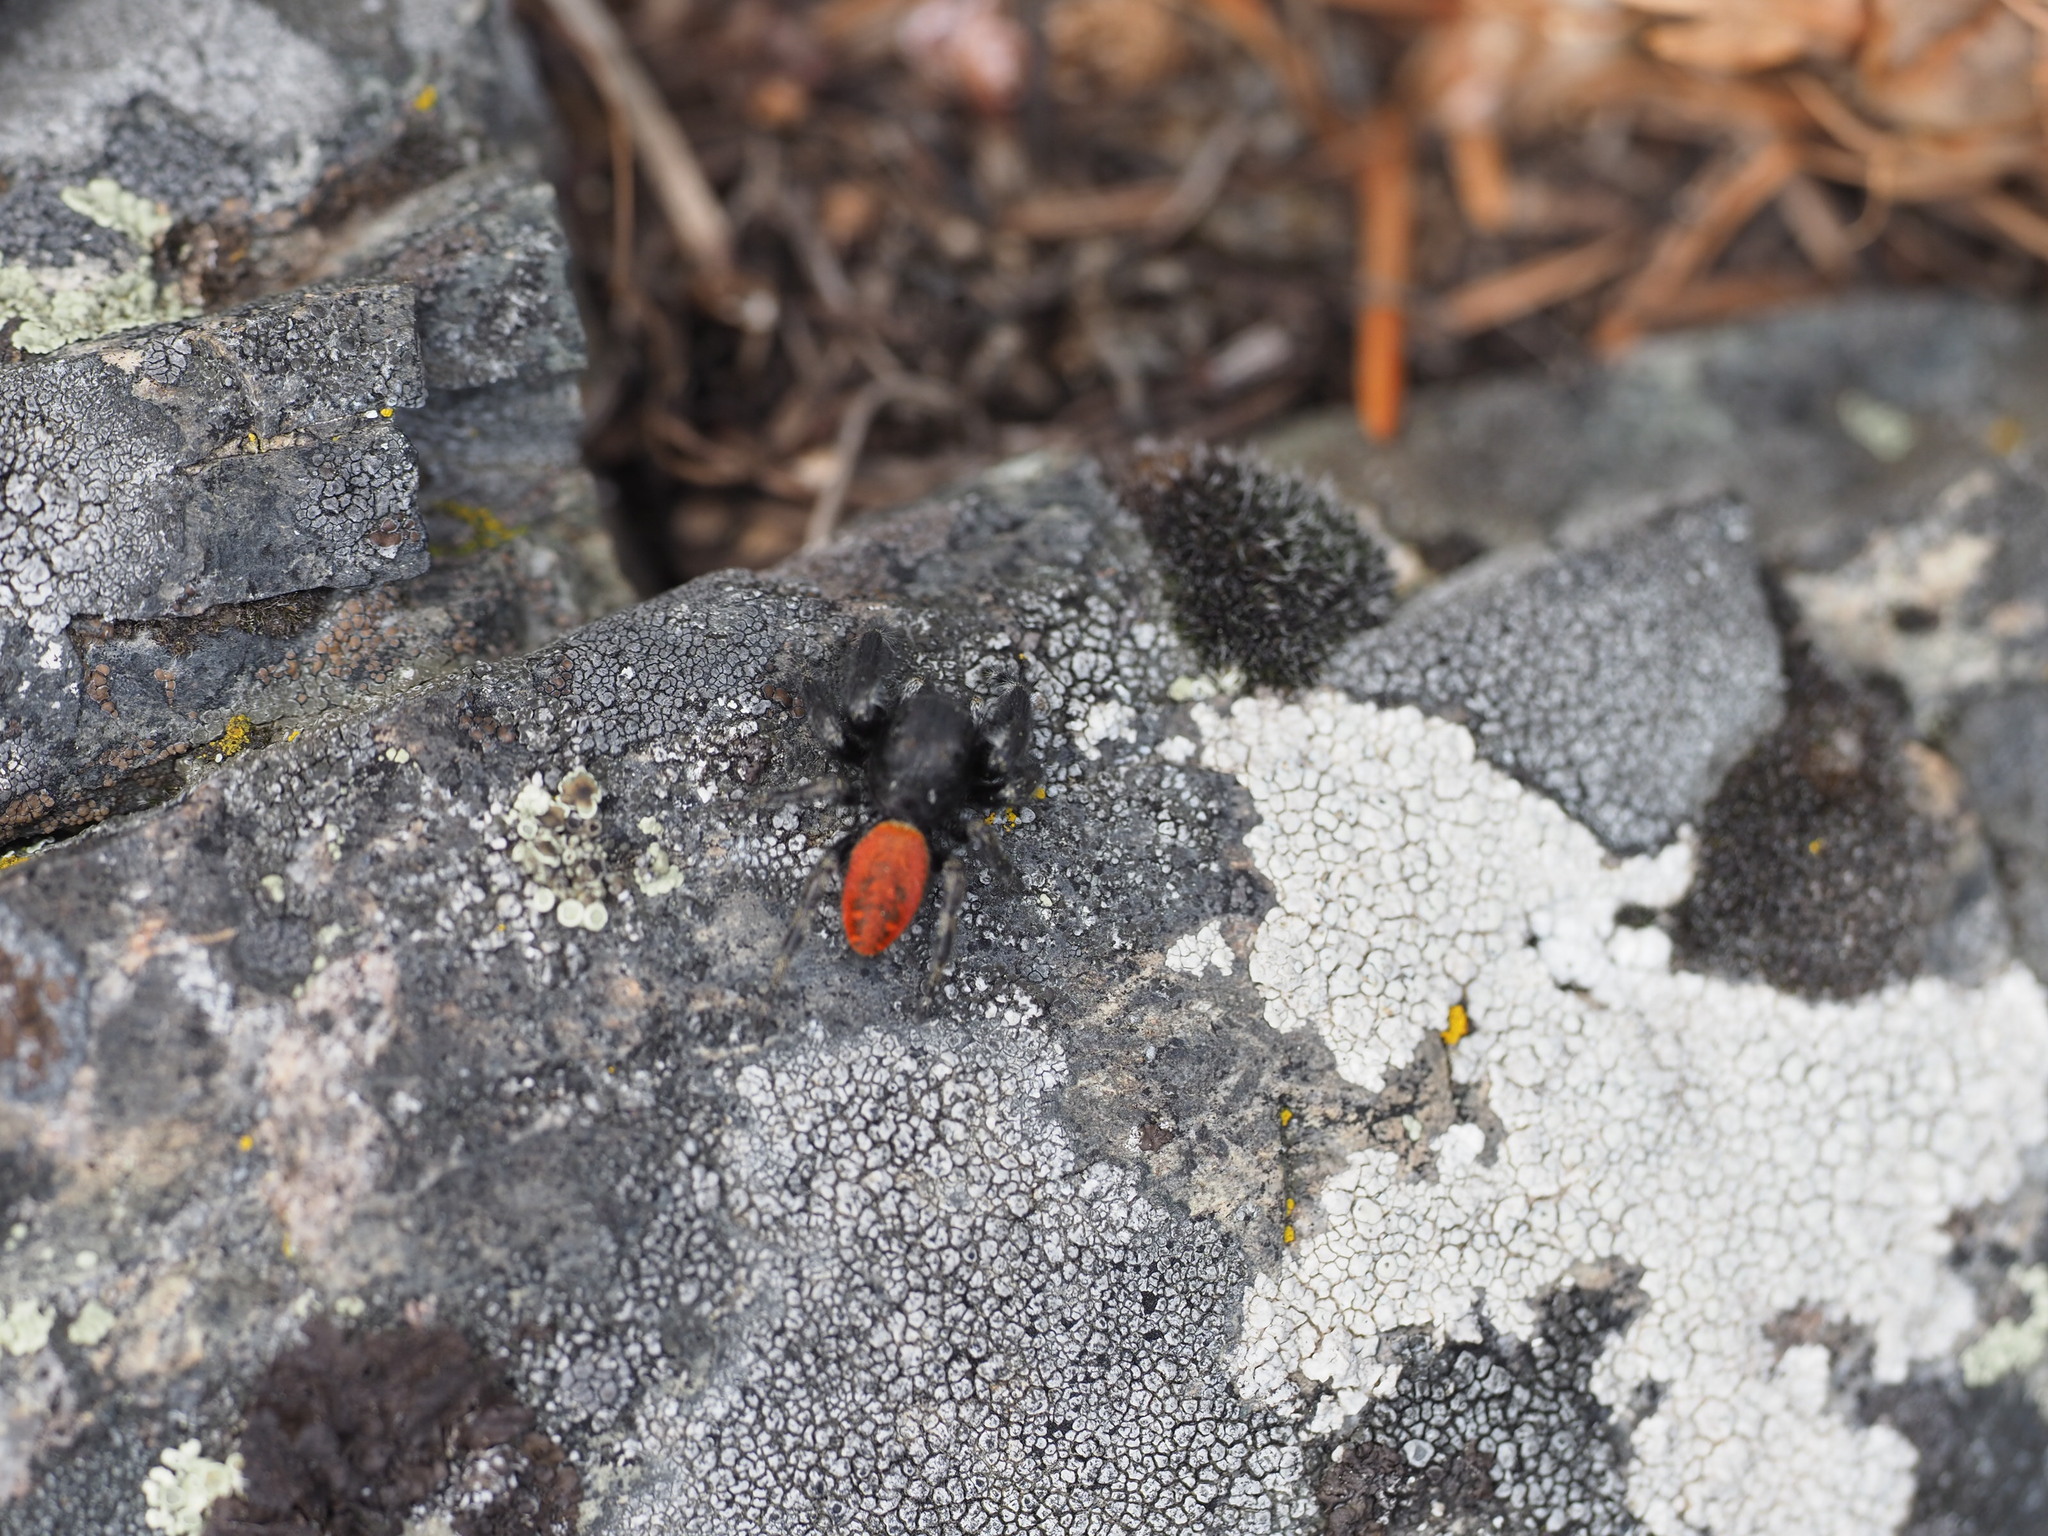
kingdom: Animalia
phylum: Arthropoda
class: Arachnida
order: Araneae
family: Salticidae
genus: Phidippus
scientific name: Phidippus johnsoni
